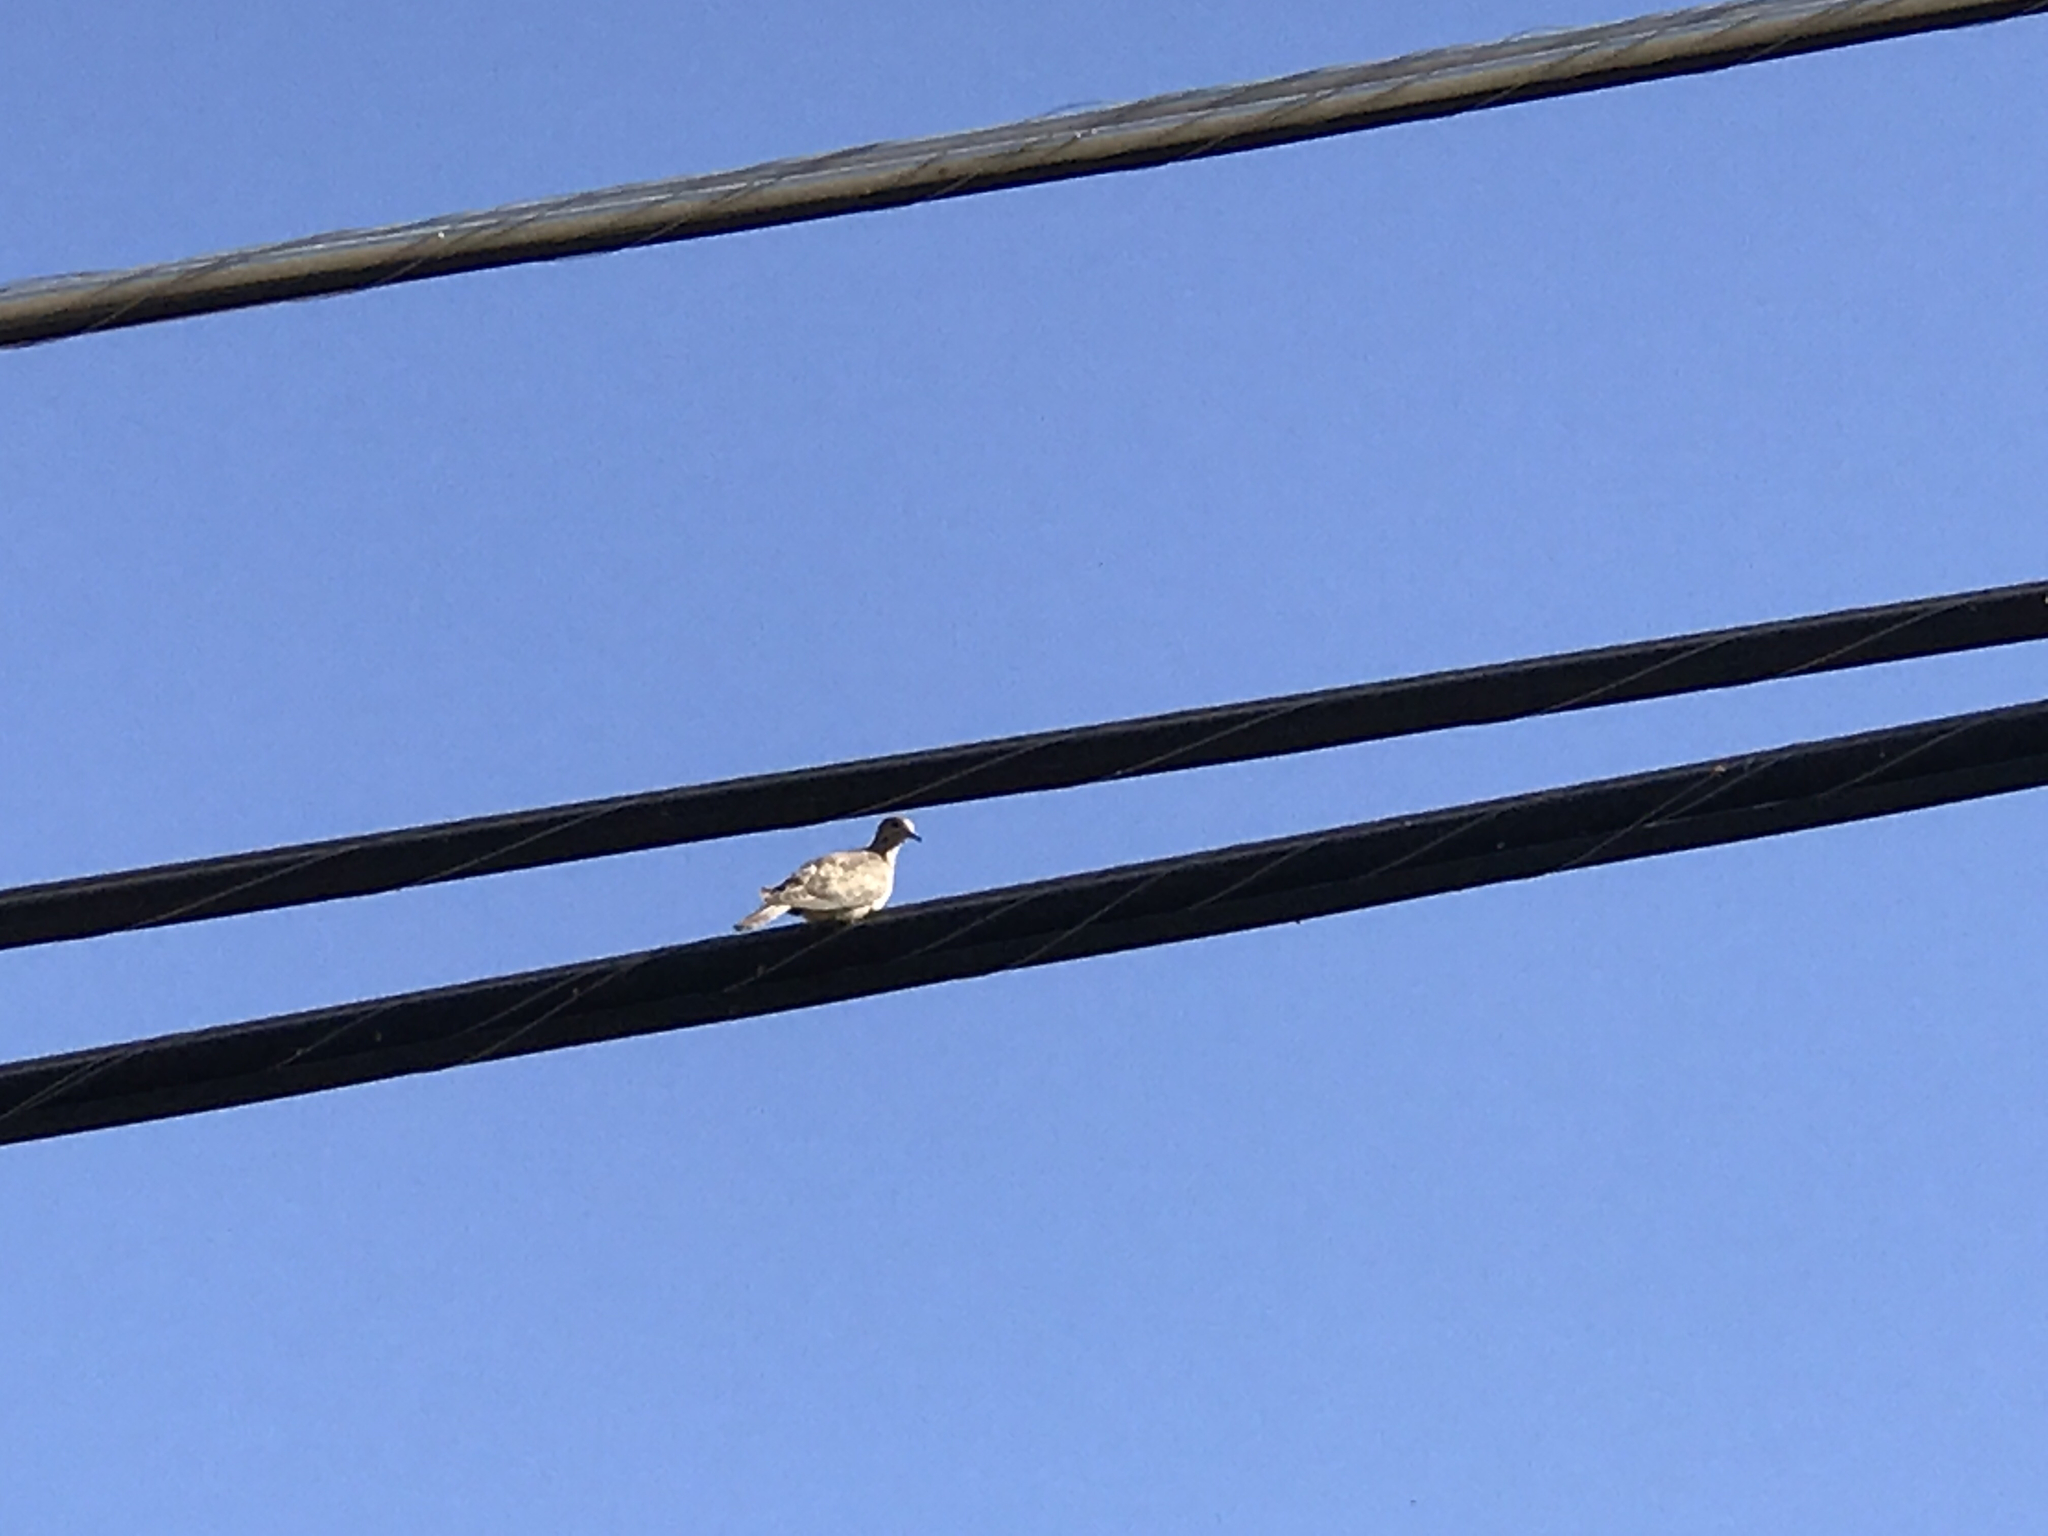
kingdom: Animalia
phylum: Chordata
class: Aves
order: Columbiformes
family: Columbidae
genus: Zenaida
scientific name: Zenaida macroura
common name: Mourning dove
